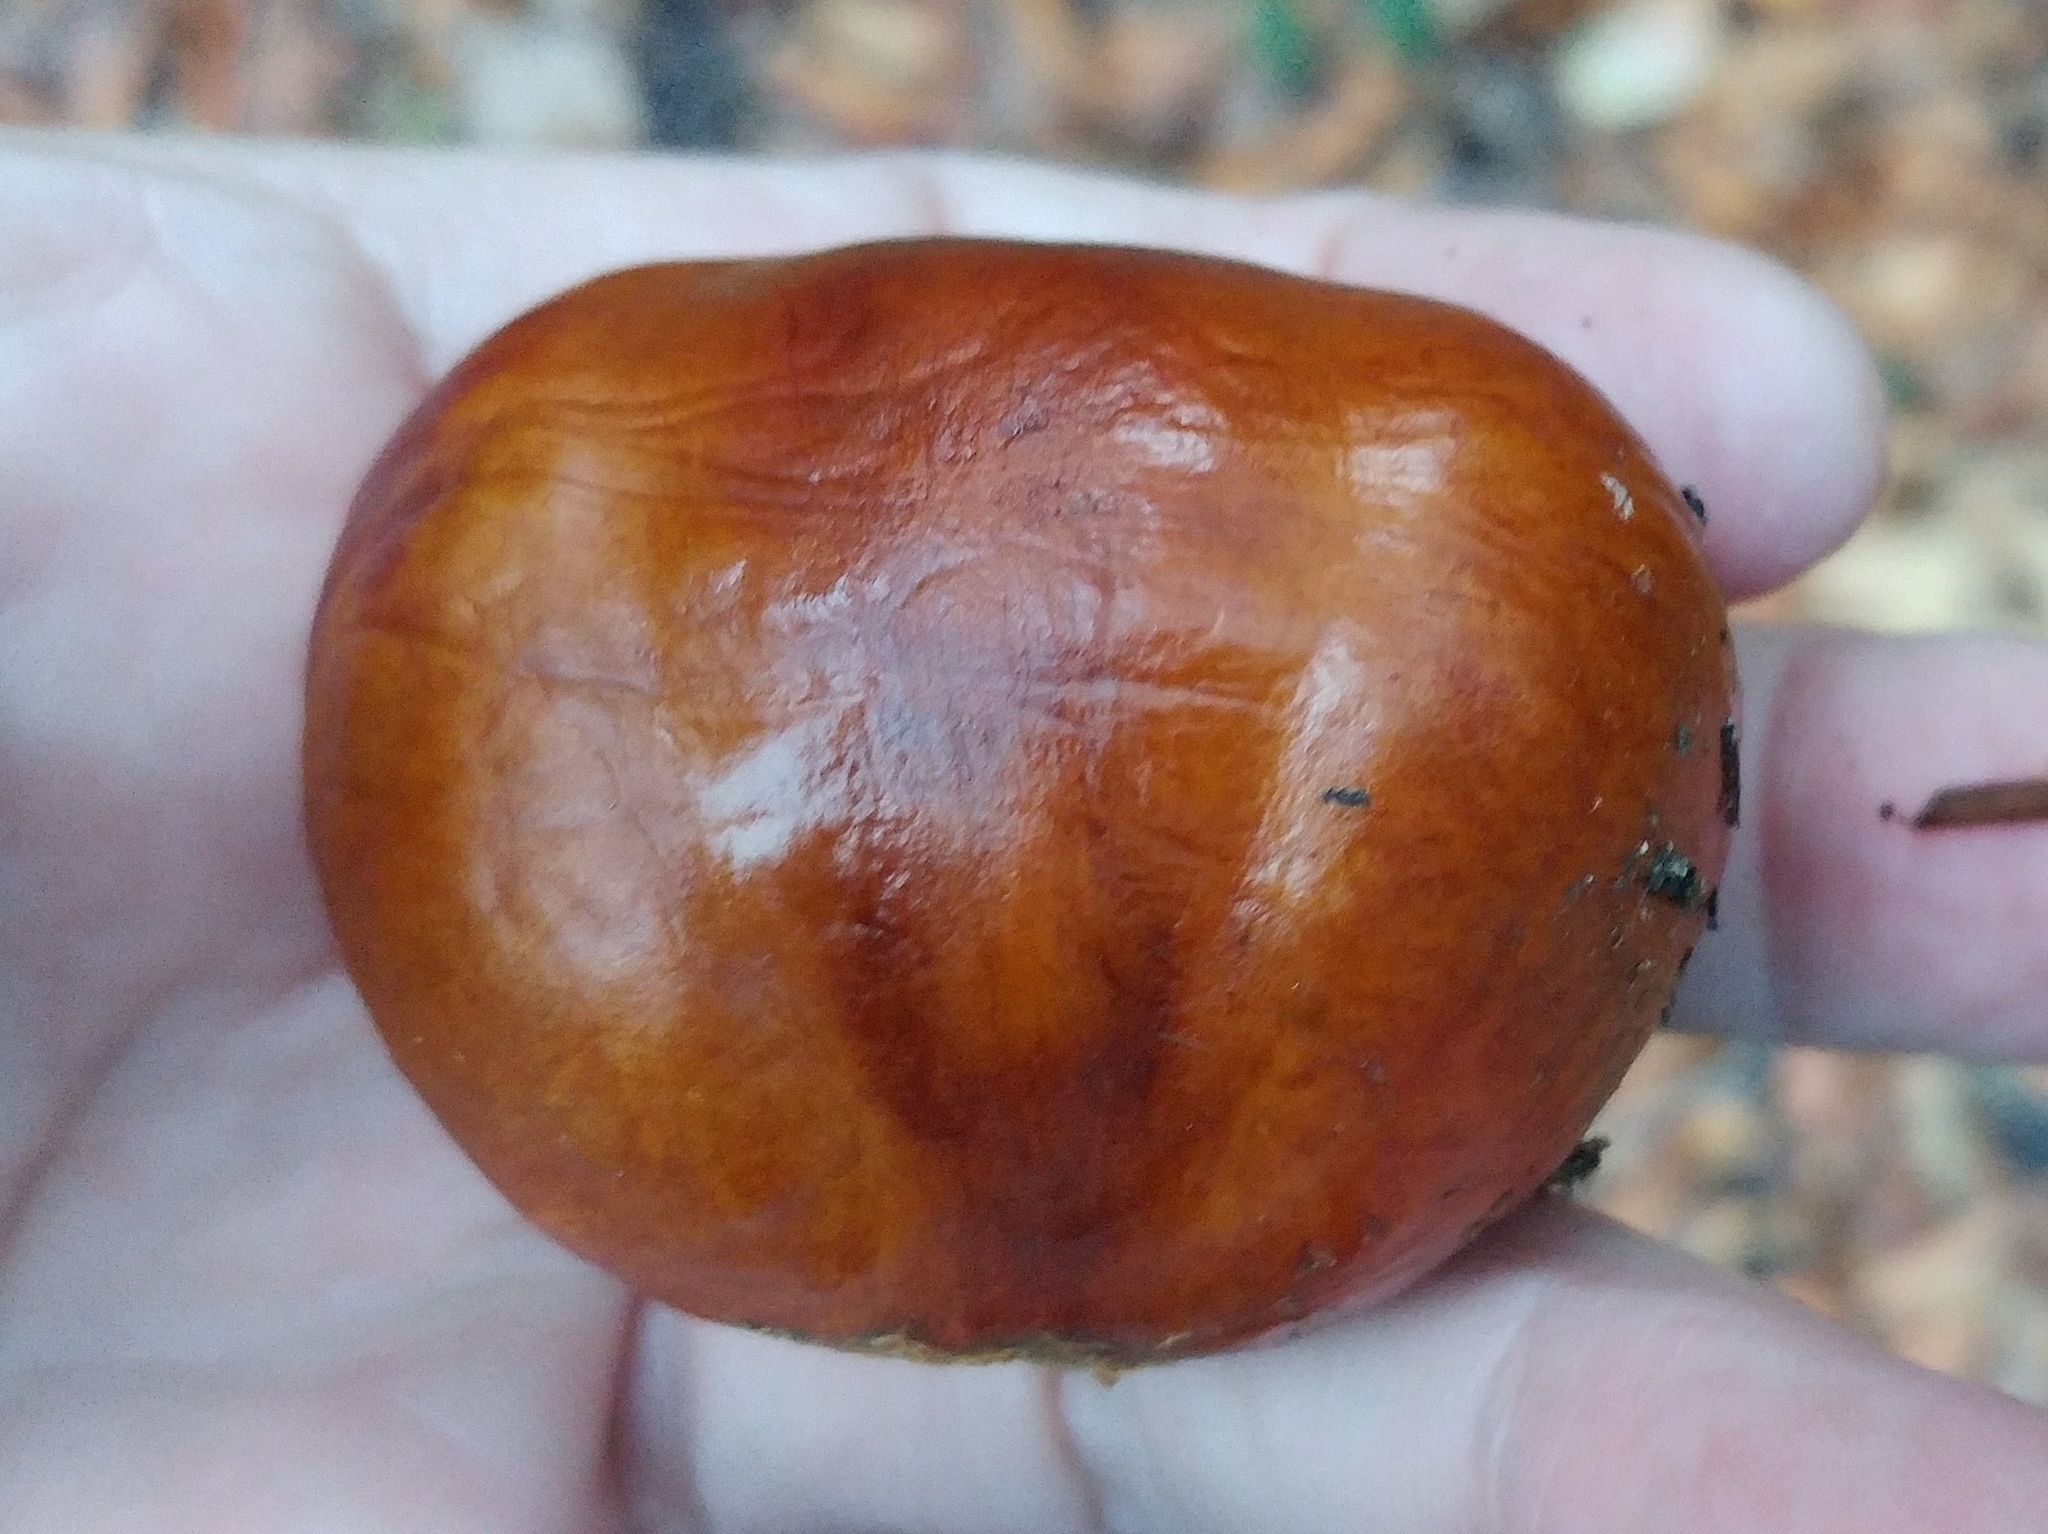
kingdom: Plantae
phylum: Tracheophyta
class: Magnoliopsida
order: Sapindales
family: Sapindaceae
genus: Aesculus
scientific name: Aesculus californica
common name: California buckeye
